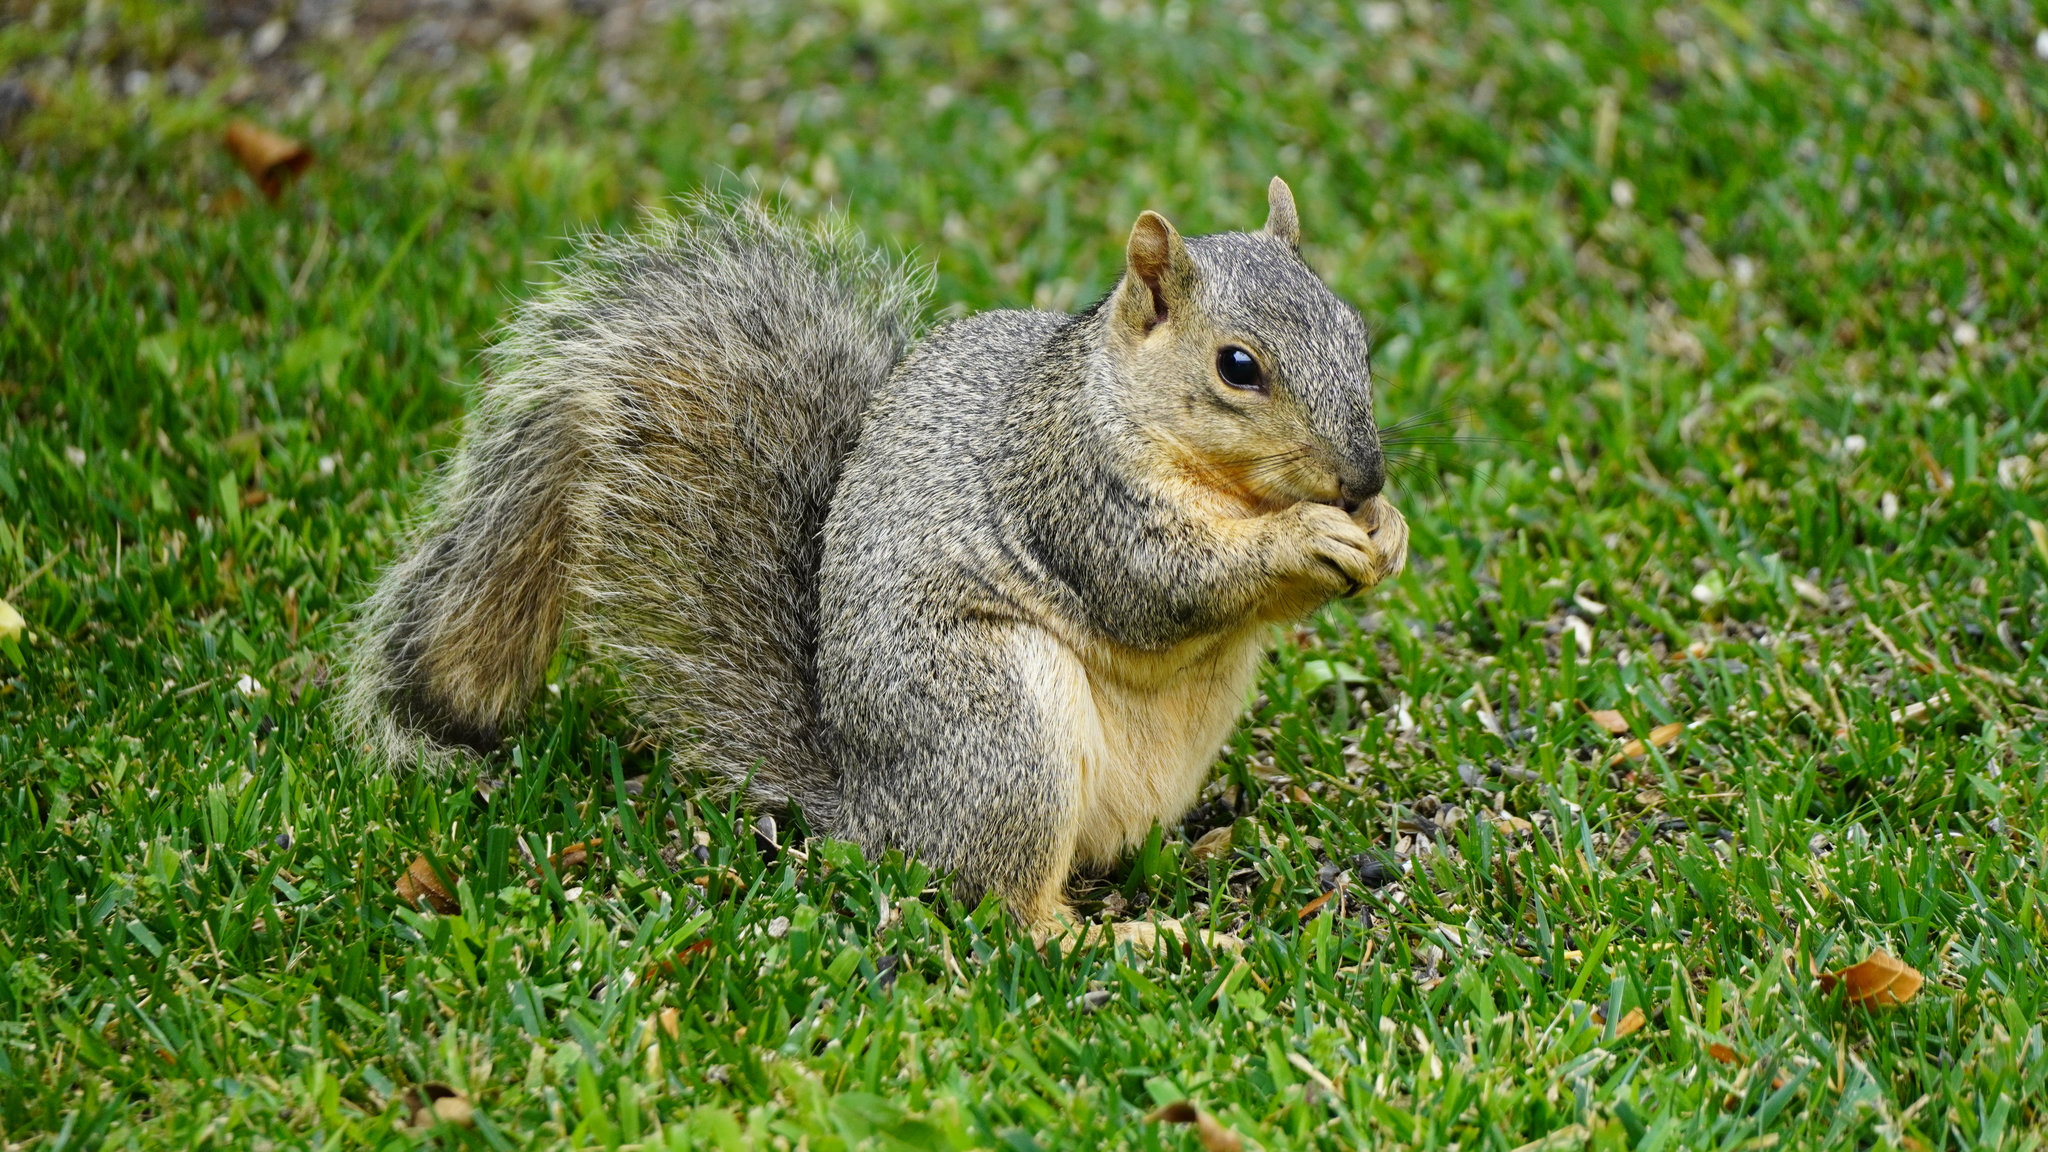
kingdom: Animalia
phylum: Chordata
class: Mammalia
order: Rodentia
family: Sciuridae
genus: Sciurus
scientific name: Sciurus niger
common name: Fox squirrel
